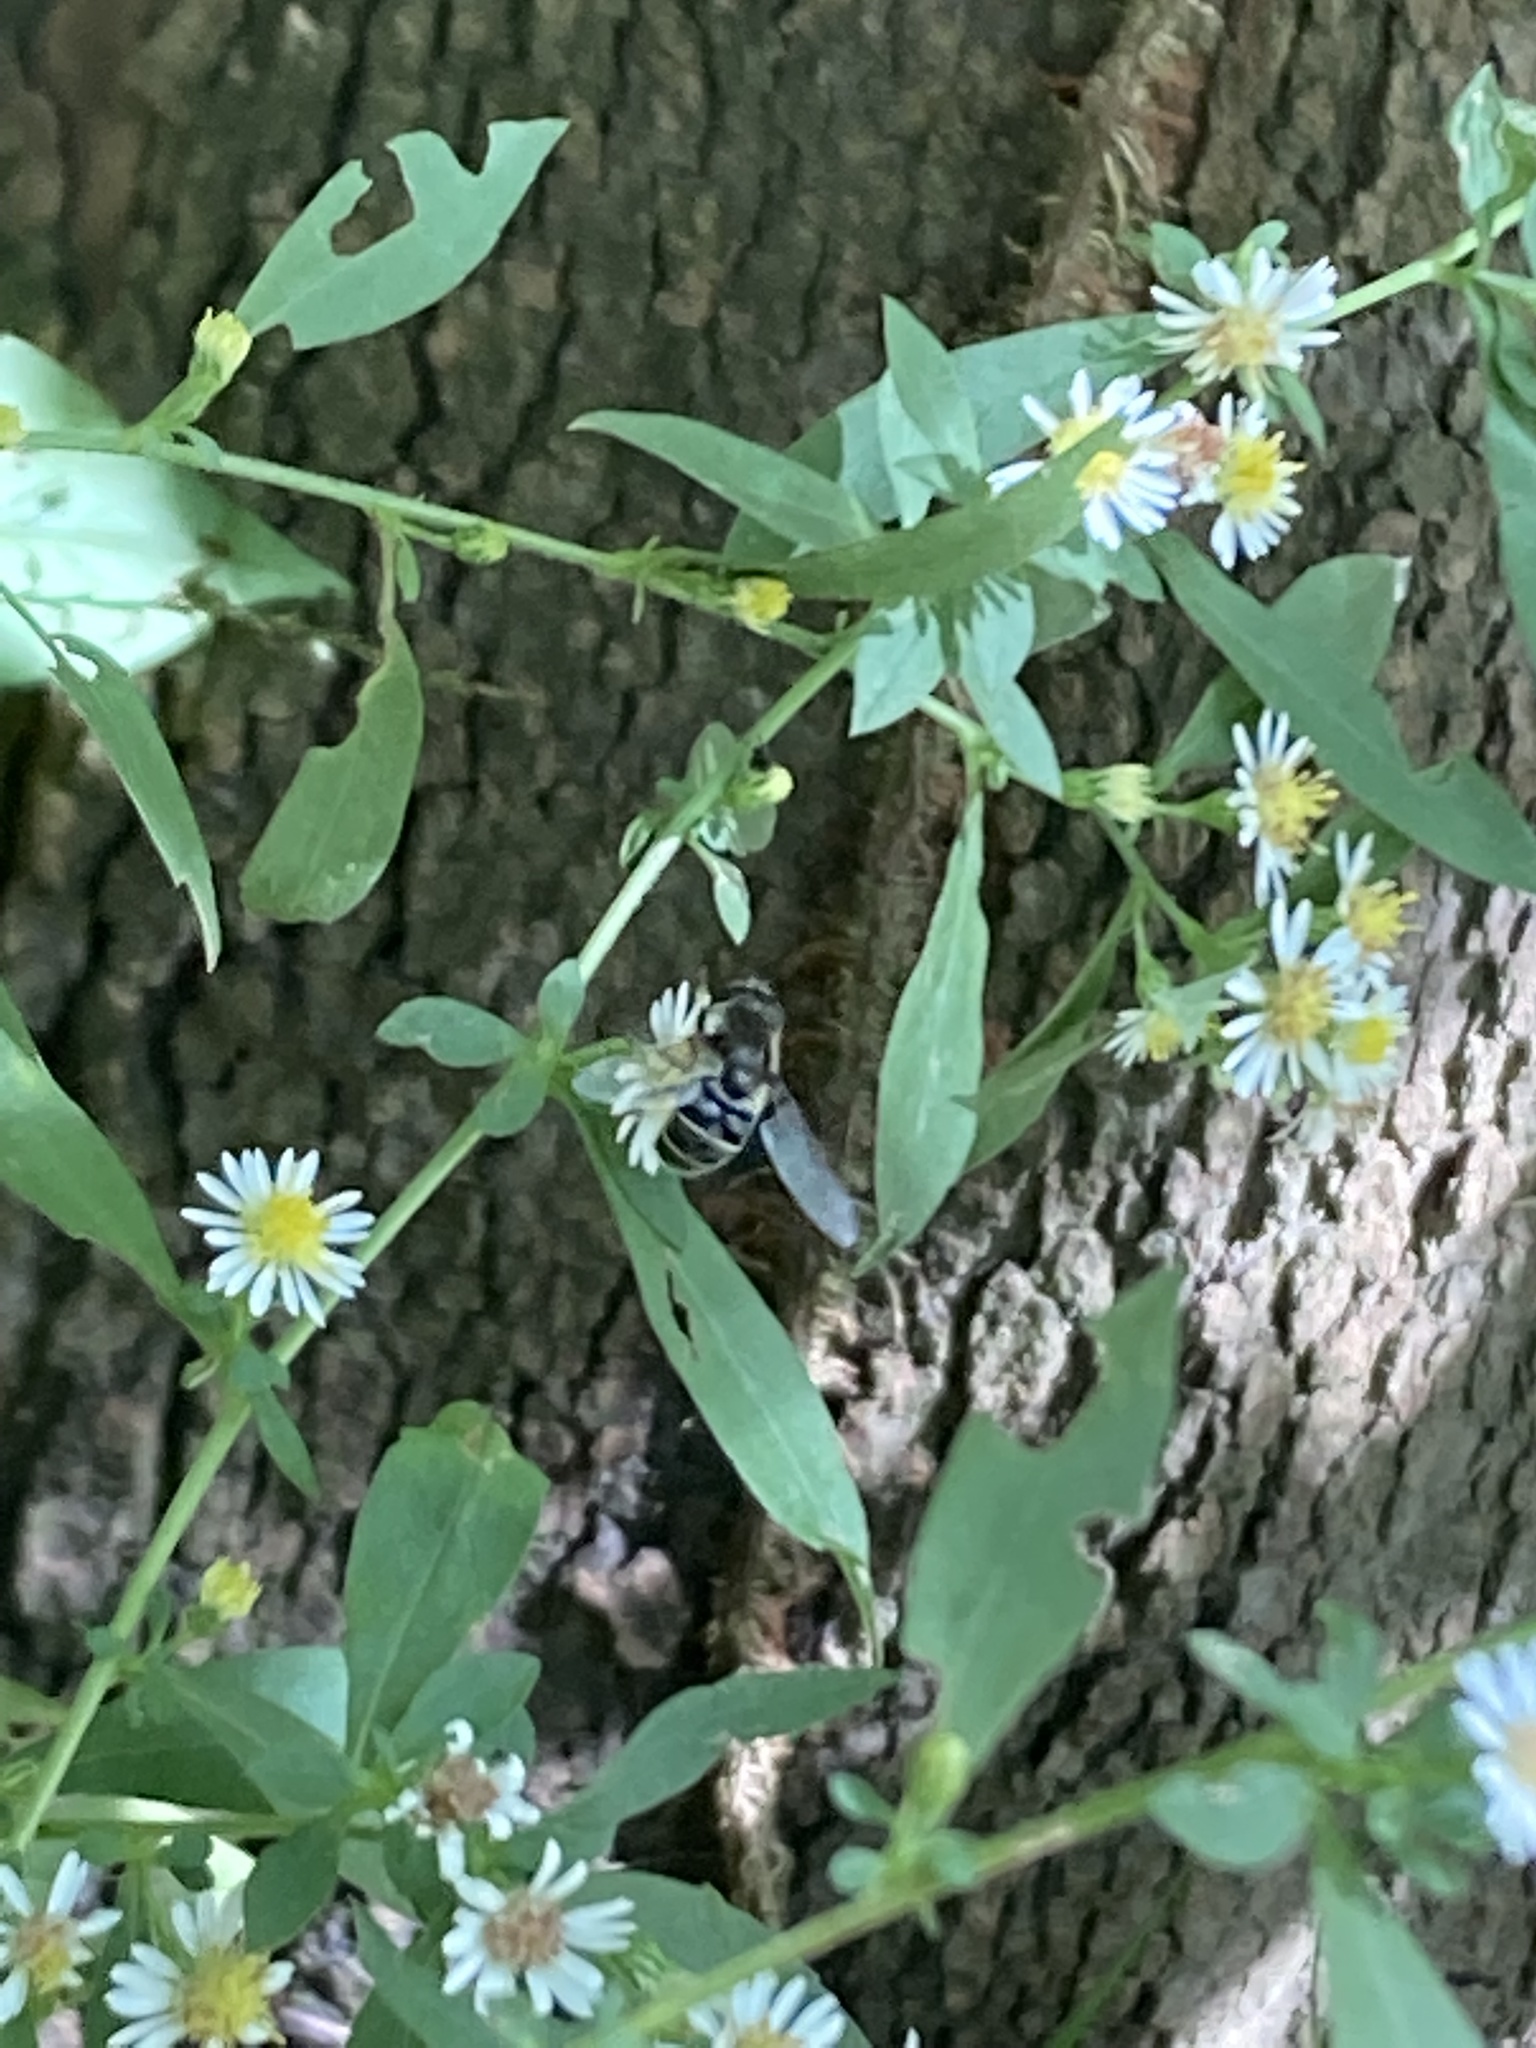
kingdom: Animalia
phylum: Arthropoda
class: Insecta
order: Diptera
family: Syrphidae
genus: Eristalis
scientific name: Eristalis dimidiata
